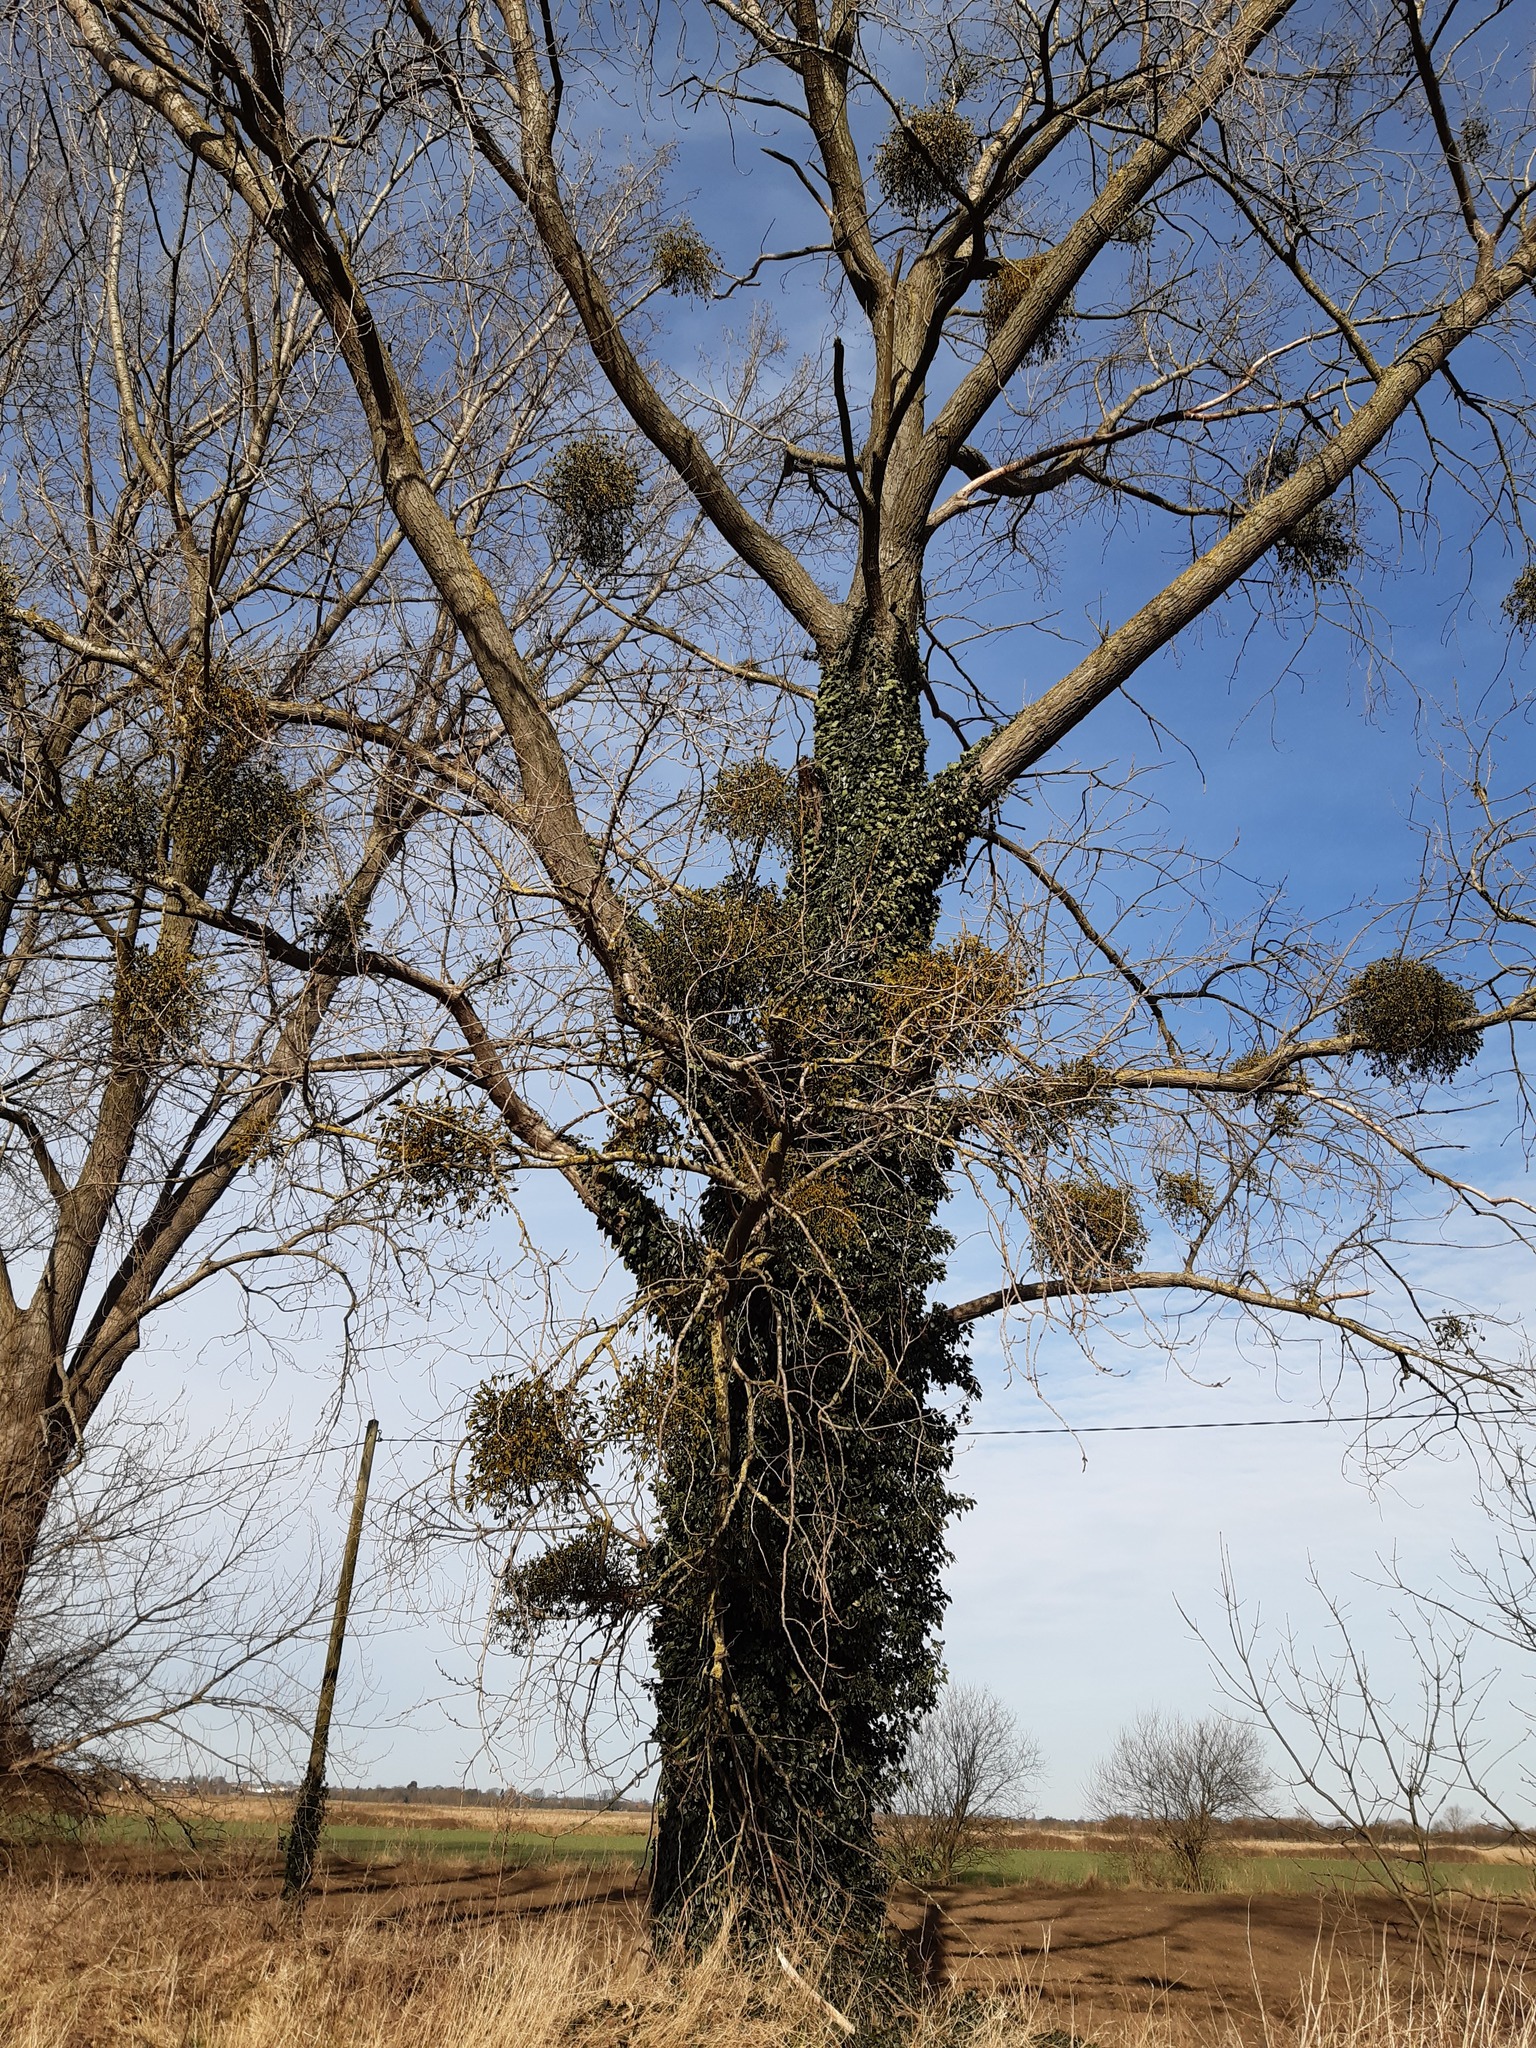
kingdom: Plantae
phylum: Tracheophyta
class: Magnoliopsida
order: Santalales
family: Viscaceae
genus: Viscum
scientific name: Viscum album
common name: Mistletoe
